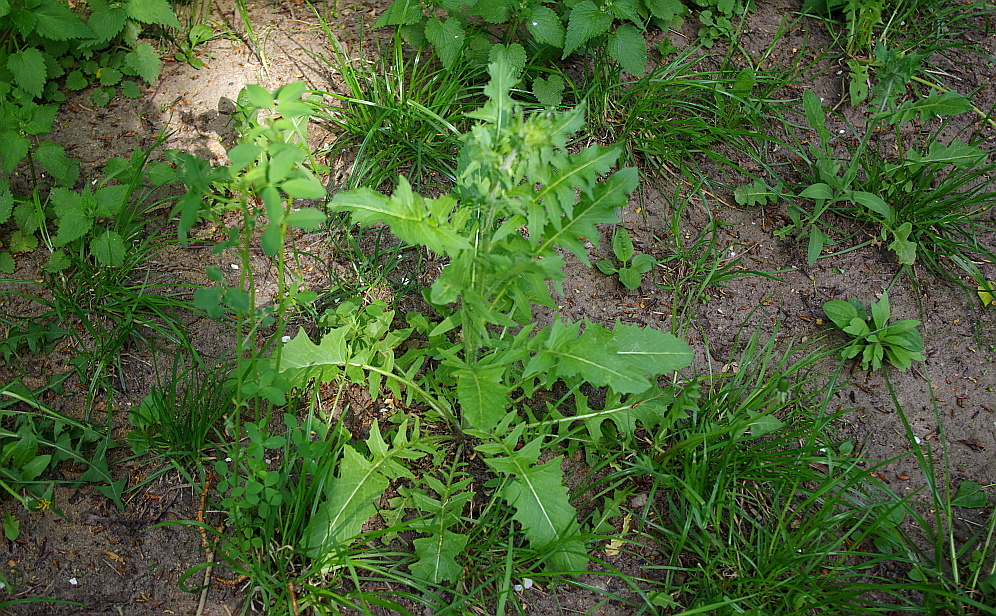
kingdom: Plantae
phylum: Tracheophyta
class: Magnoliopsida
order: Brassicales
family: Brassicaceae
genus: Sisymbrium
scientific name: Sisymbrium loeselii
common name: False london-rocket
